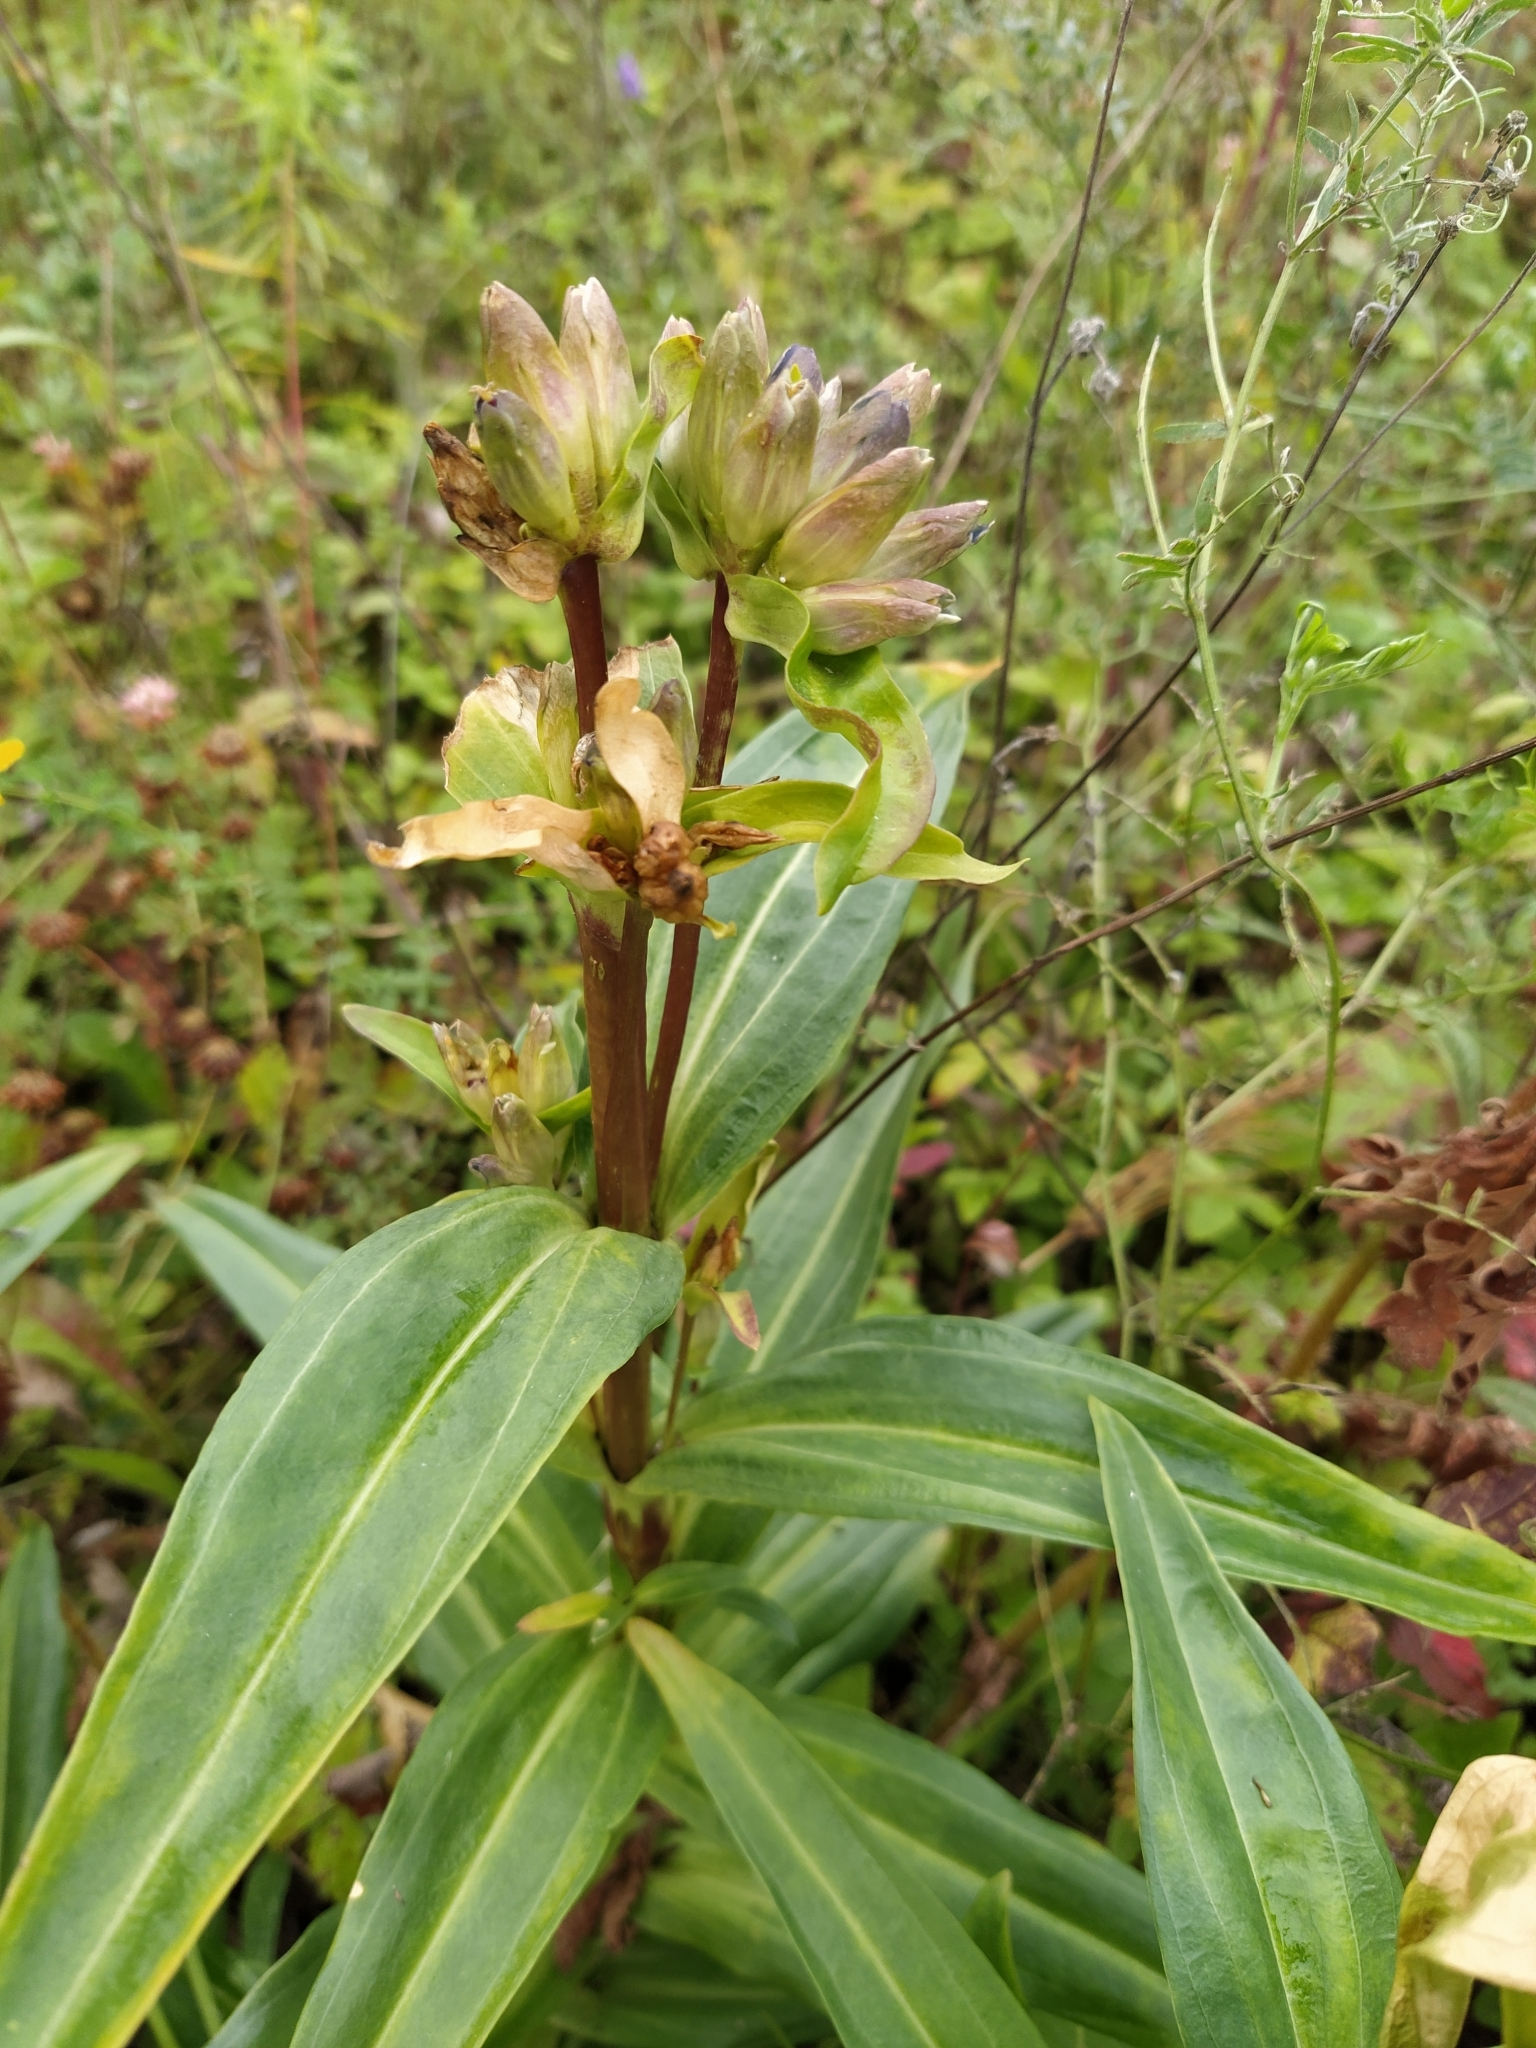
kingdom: Plantae
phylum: Tracheophyta
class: Magnoliopsida
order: Gentianales
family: Gentianaceae
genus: Gentiana
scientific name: Gentiana cruciata
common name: Cross gentian
